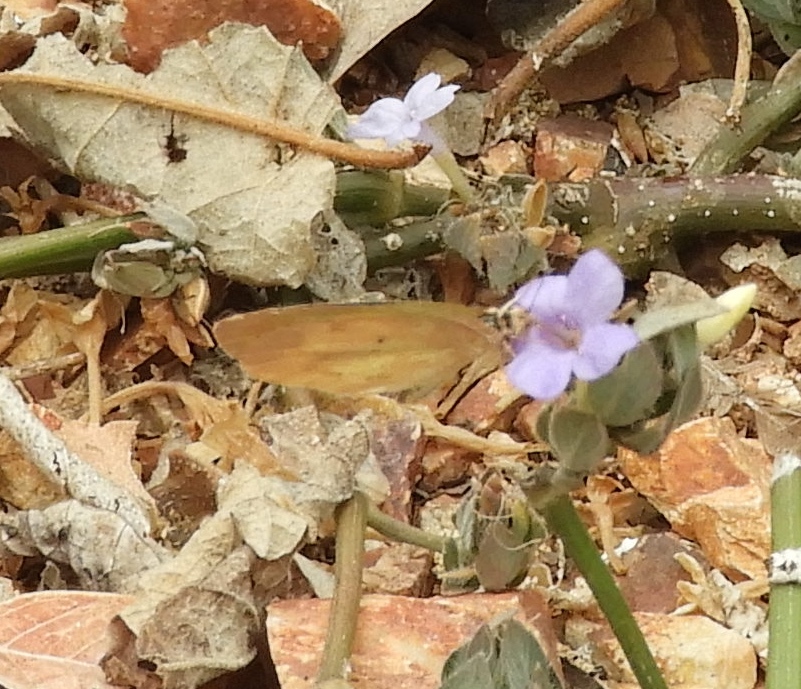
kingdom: Animalia
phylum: Arthropoda
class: Insecta
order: Lepidoptera
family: Pieridae
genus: Eurema
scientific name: Eurema daira
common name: Barred sulphur
